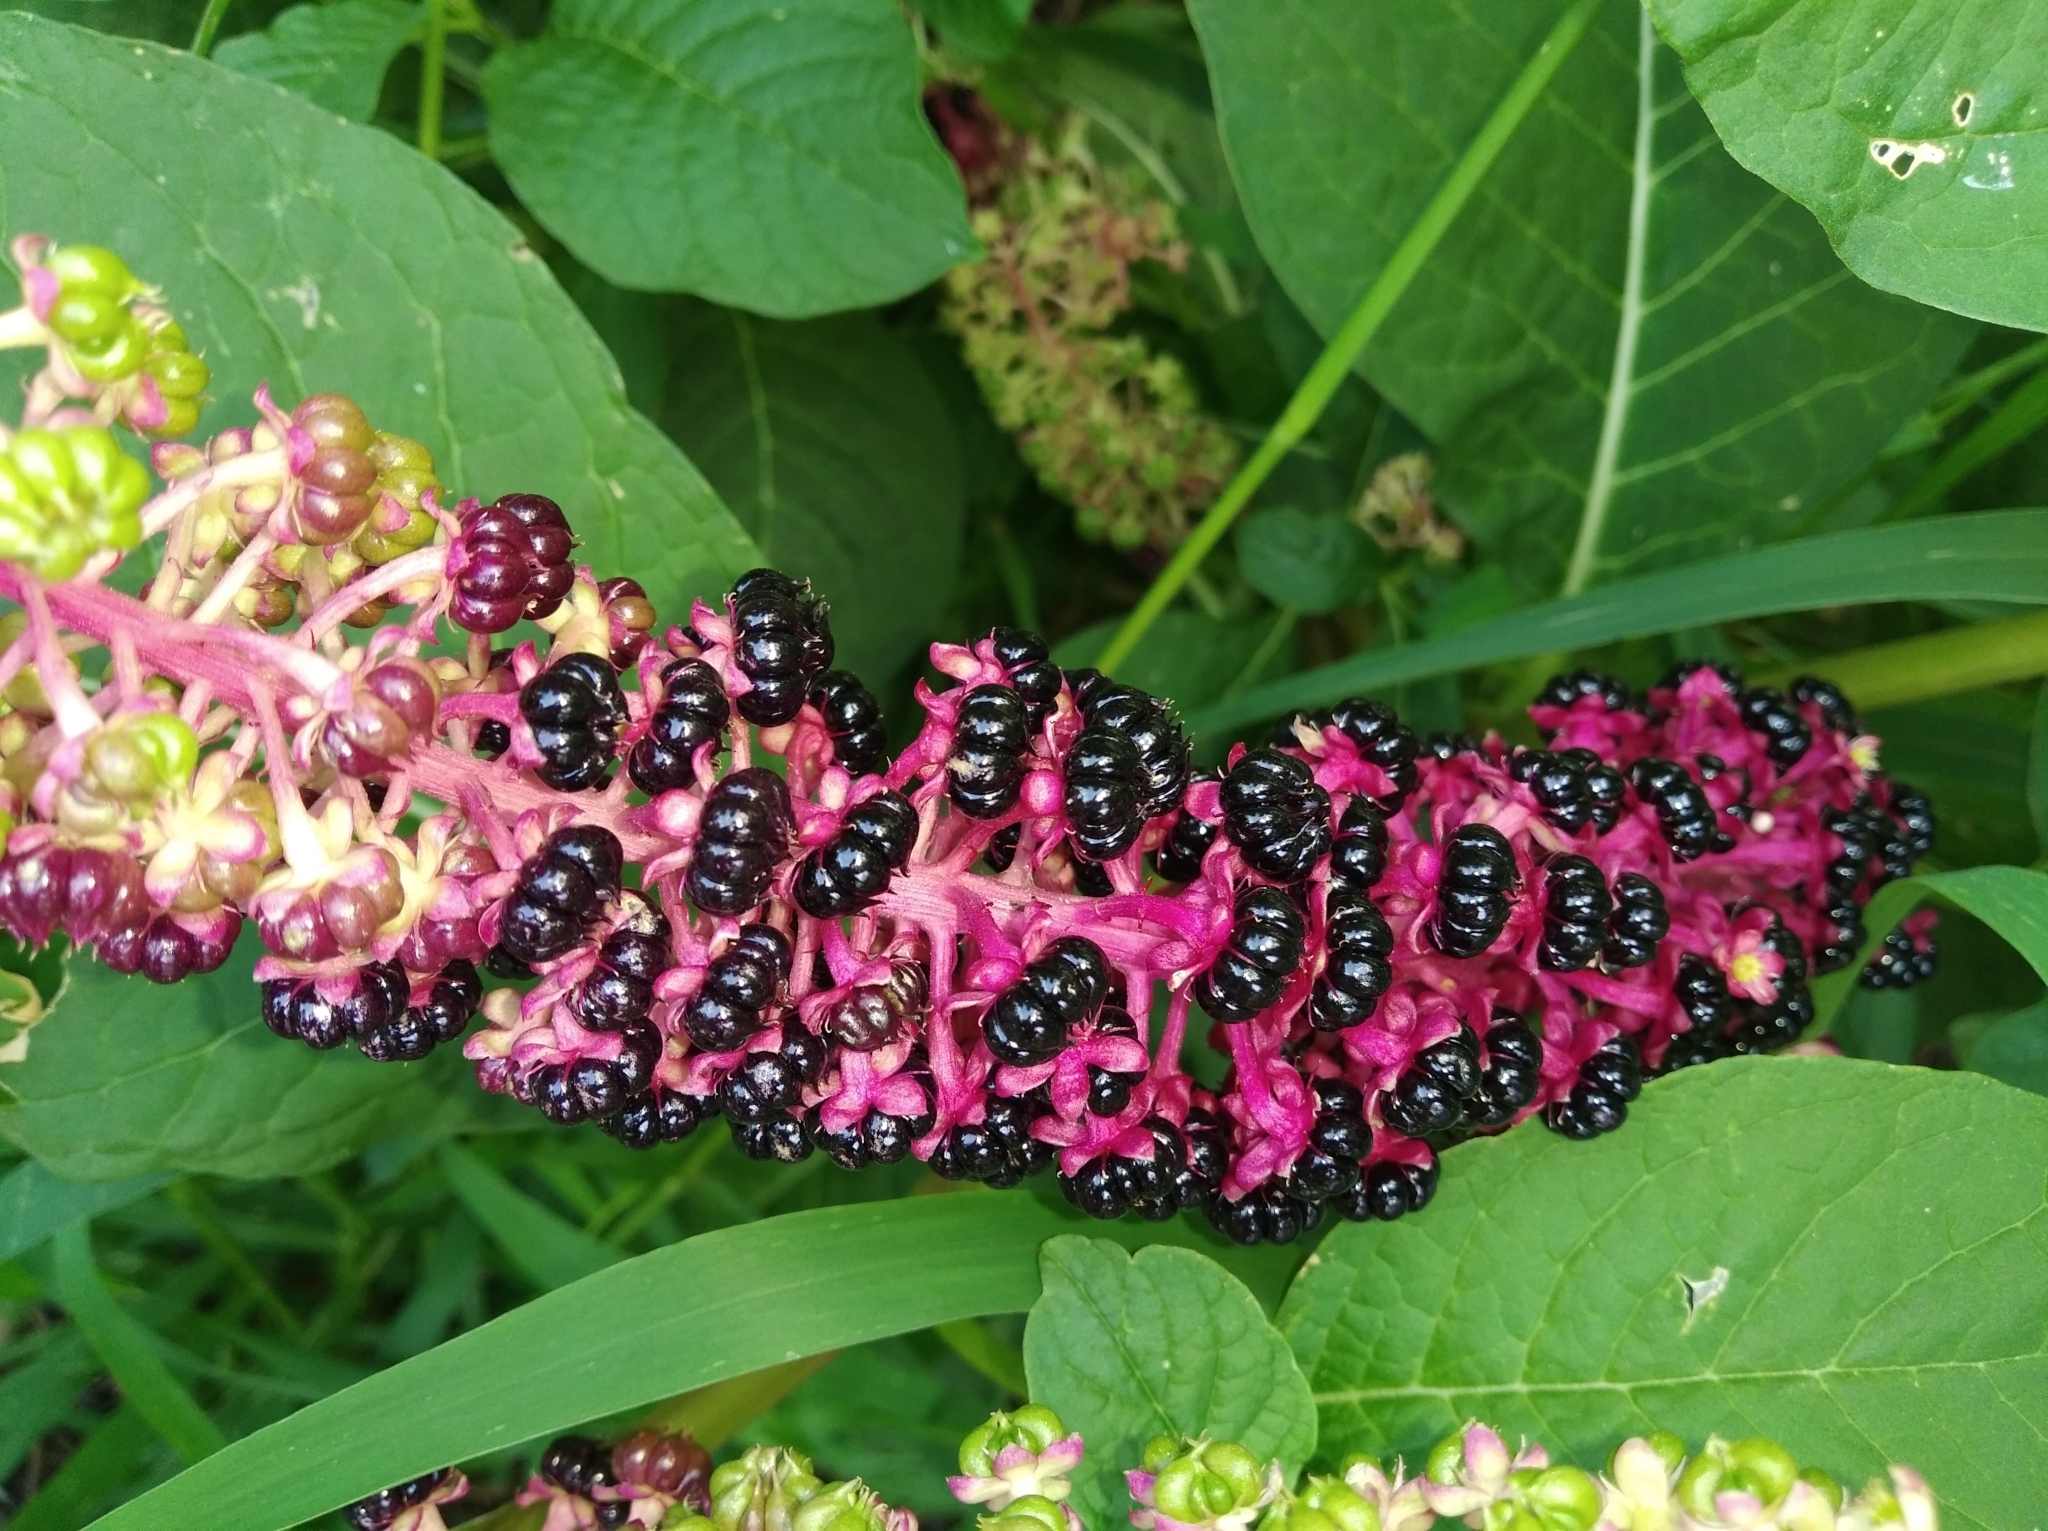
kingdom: Plantae
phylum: Tracheophyta
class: Magnoliopsida
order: Caryophyllales
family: Phytolaccaceae
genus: Phytolacca
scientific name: Phytolacca acinosa
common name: Indian pokeweed
